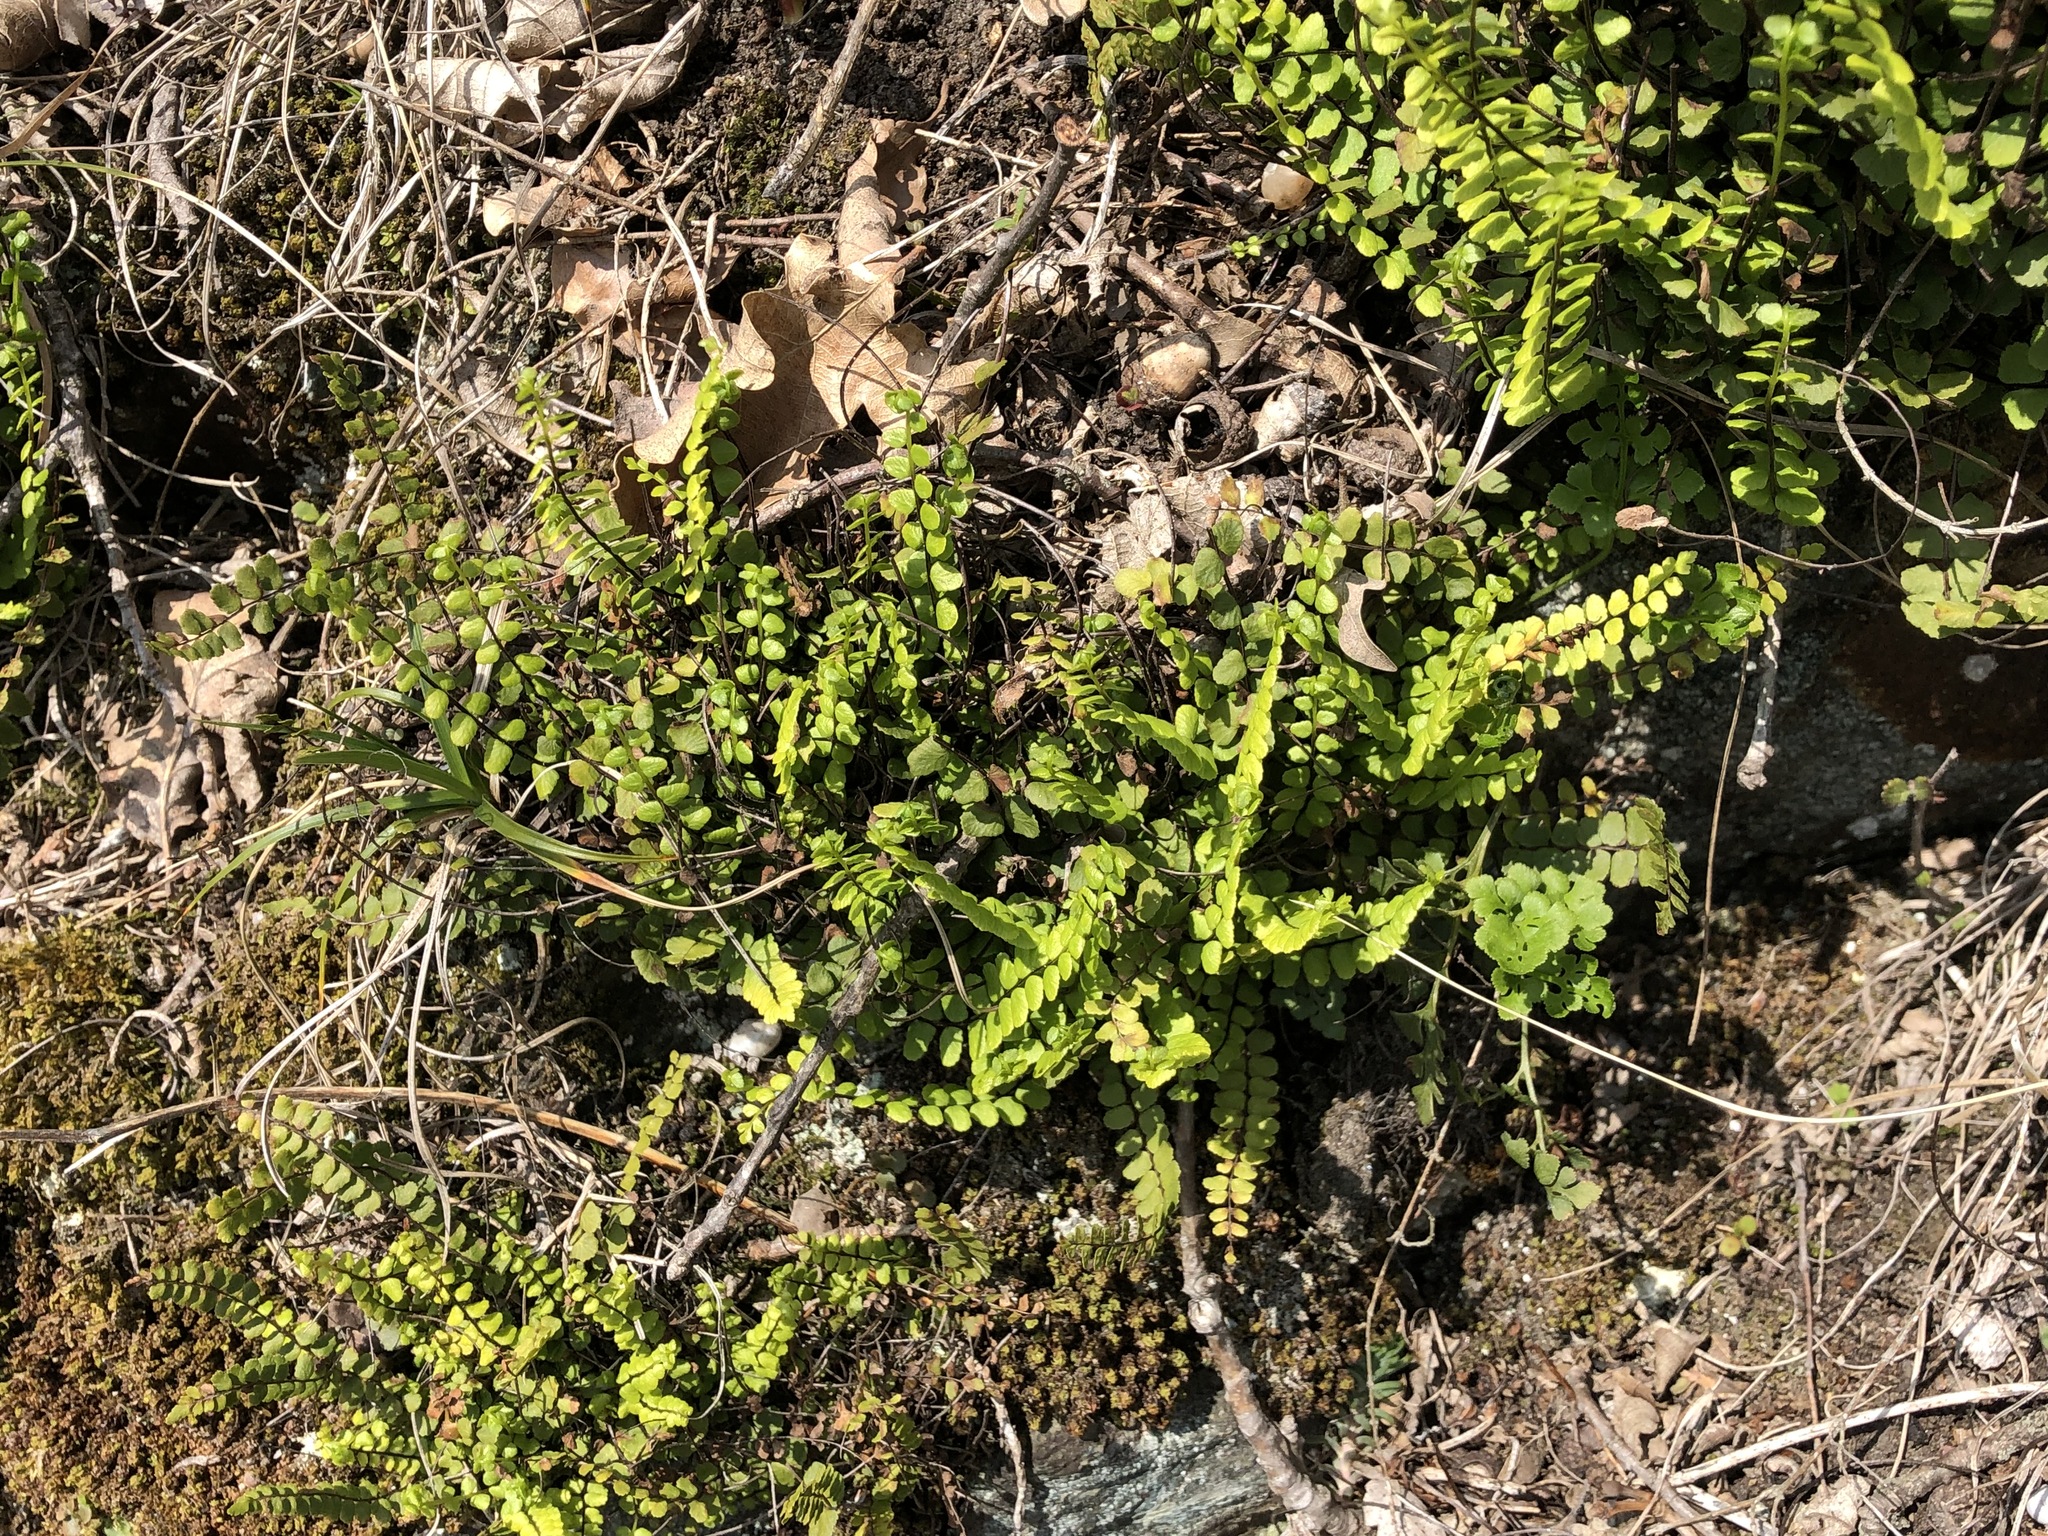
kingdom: Plantae
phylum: Tracheophyta
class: Polypodiopsida
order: Polypodiales
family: Aspleniaceae
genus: Asplenium
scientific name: Asplenium trichomanes
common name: Maidenhair spleenwort
